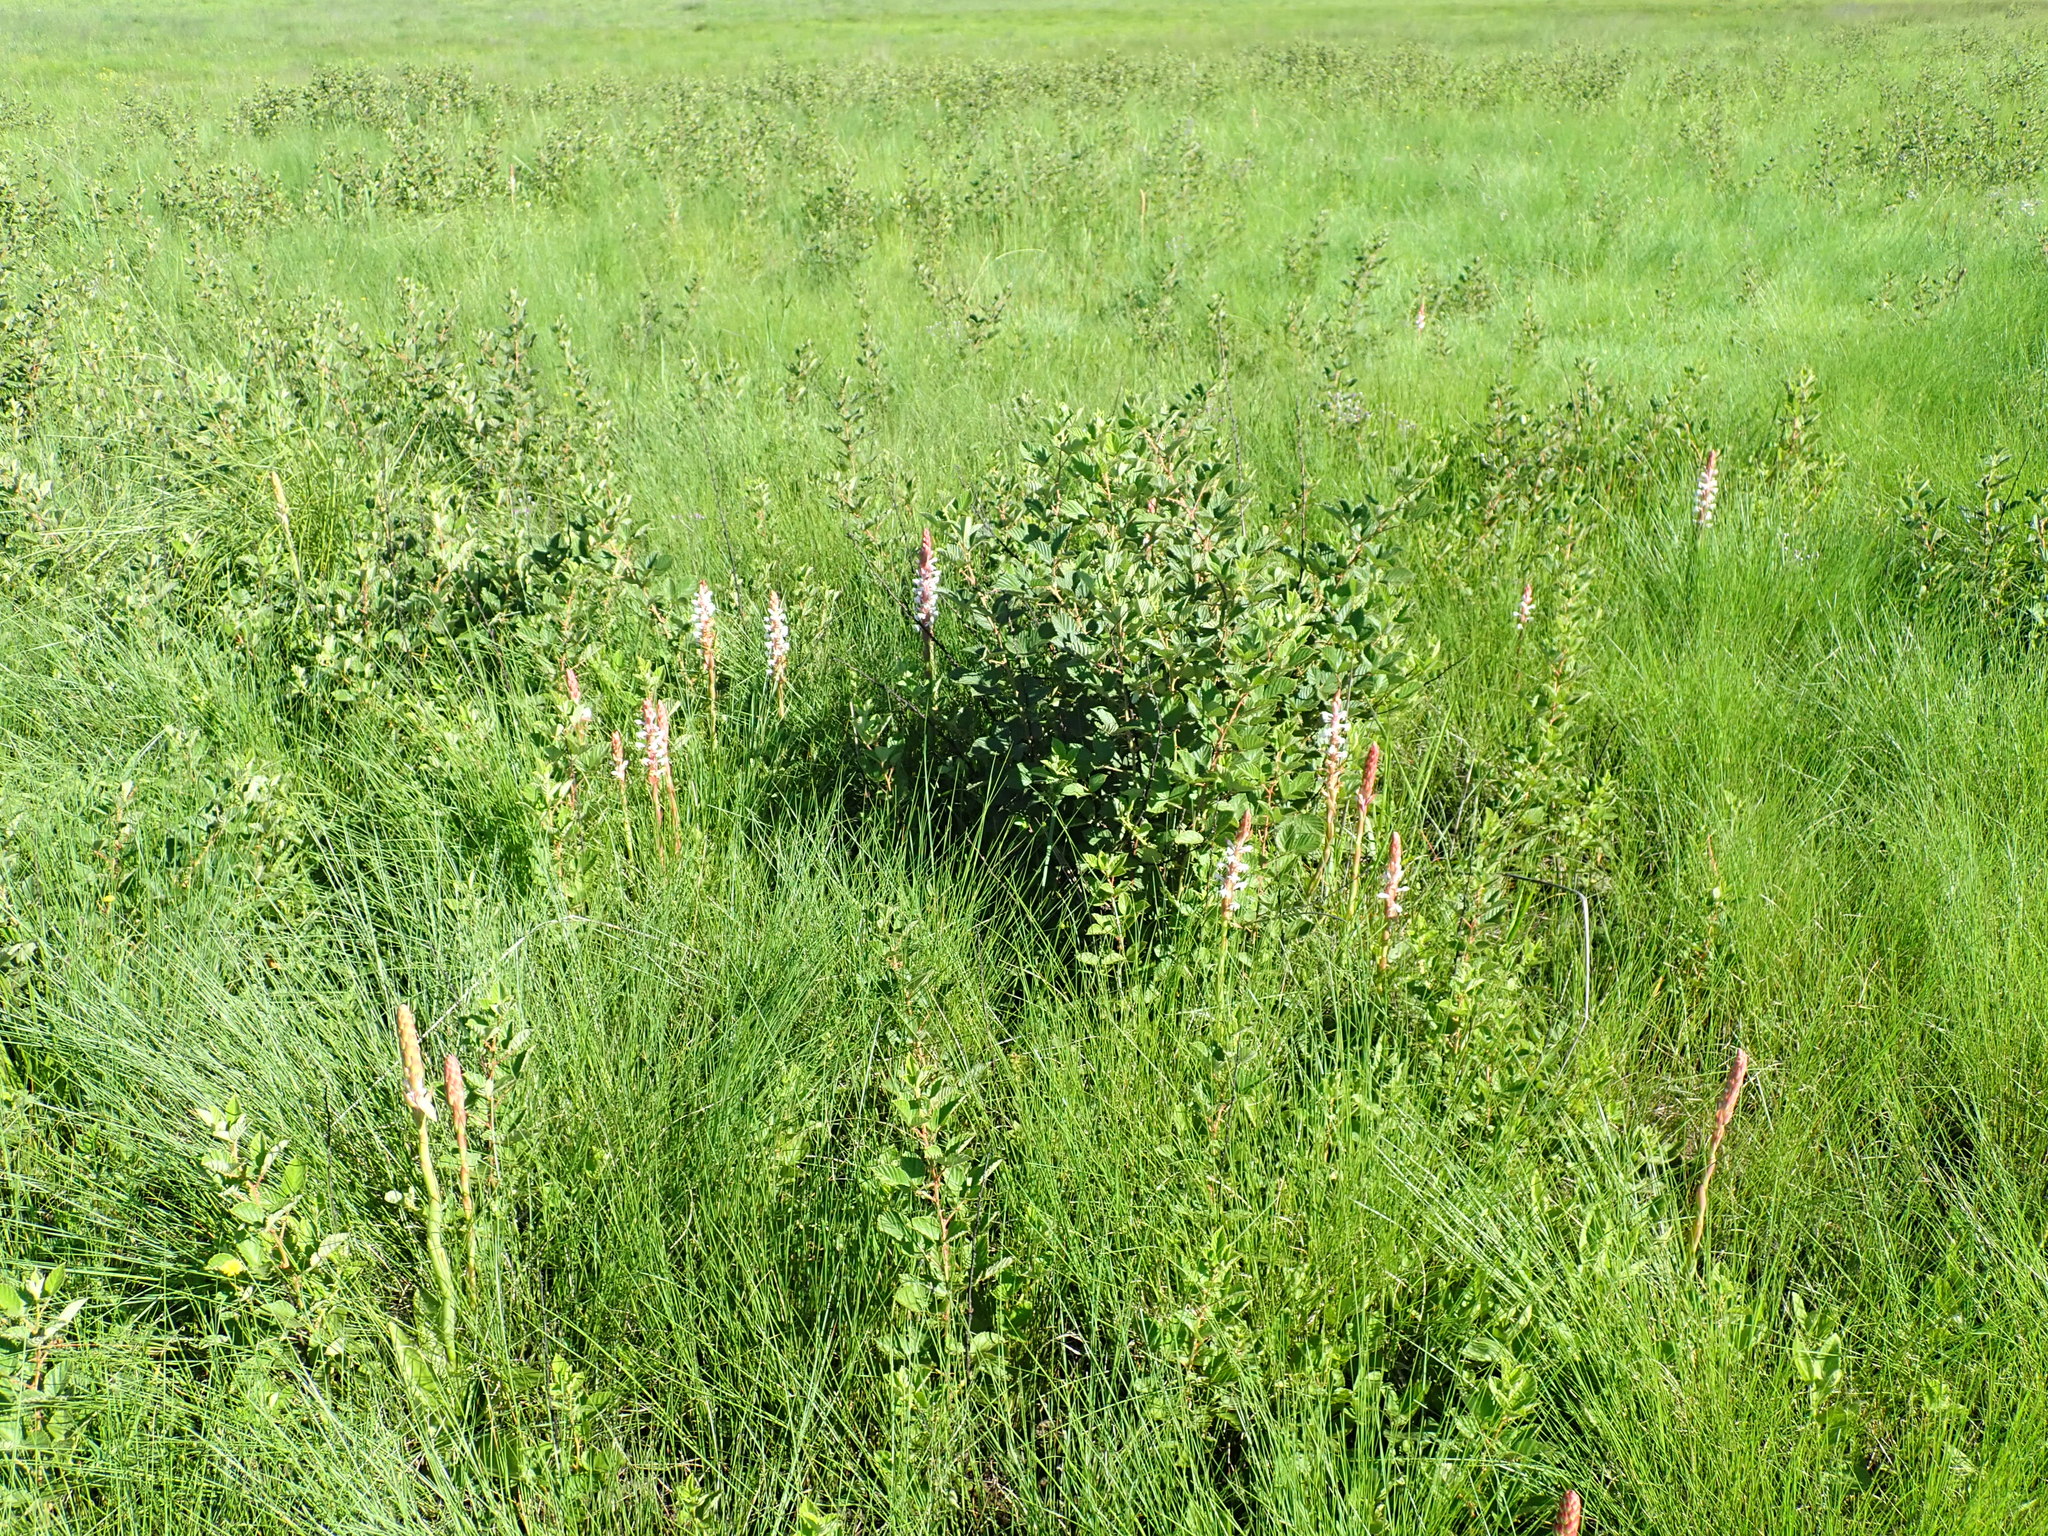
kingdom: Plantae
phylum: Tracheophyta
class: Liliopsida
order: Asparagales
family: Orchidaceae
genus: Satyrium
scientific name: Satyrium longicauda
